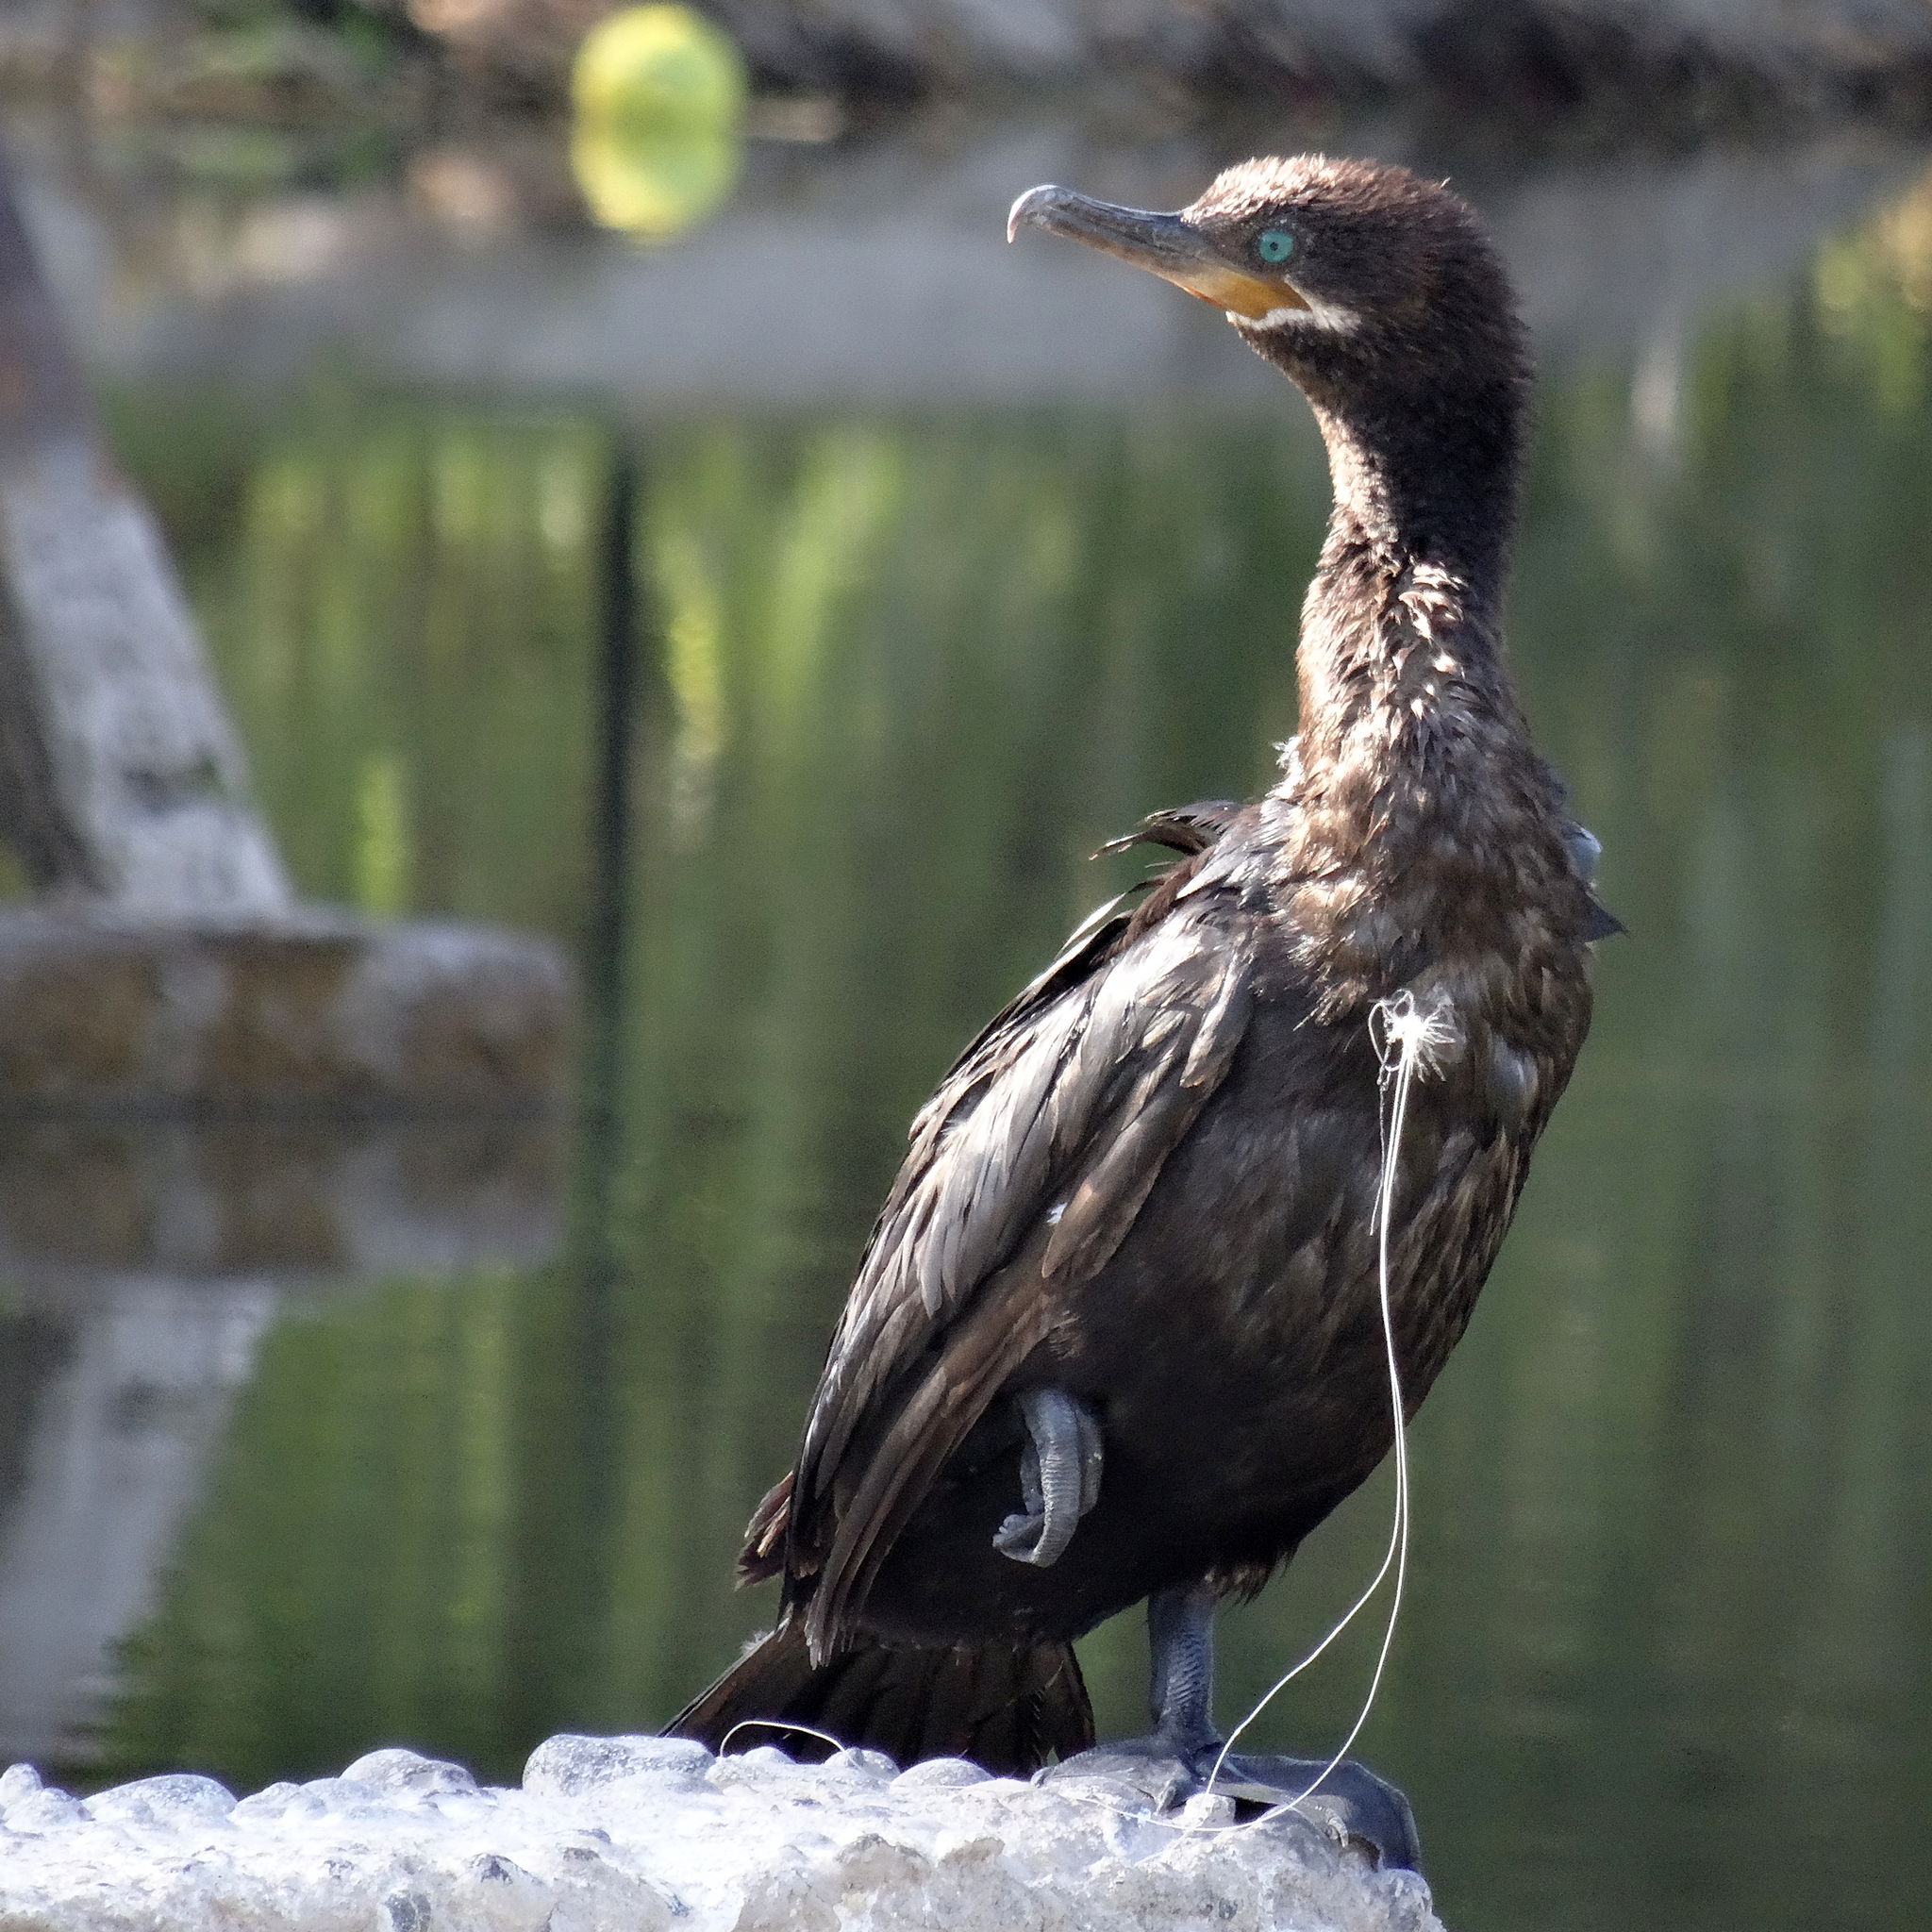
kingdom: Animalia
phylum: Chordata
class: Aves
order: Suliformes
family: Phalacrocoracidae
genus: Phalacrocorax
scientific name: Phalacrocorax brasilianus
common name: Neotropic cormorant
